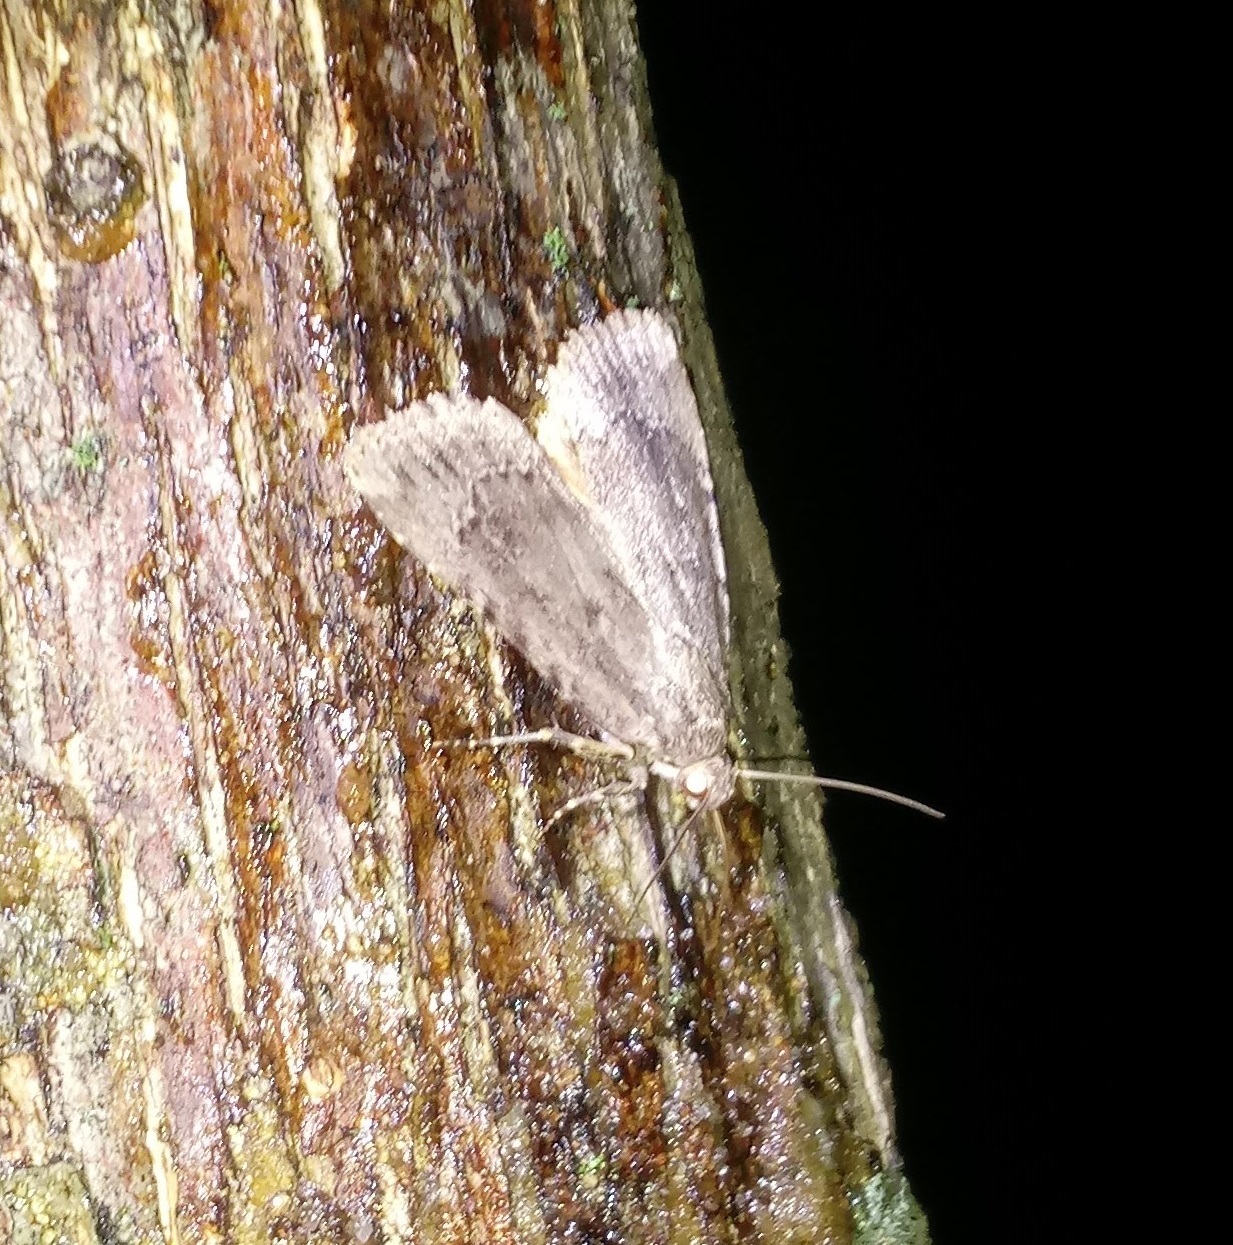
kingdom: Animalia
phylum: Arthropoda
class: Insecta
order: Lepidoptera
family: Noctuidae
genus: Amphipyra
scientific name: Amphipyra pyramidoides
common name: American copper underwing
